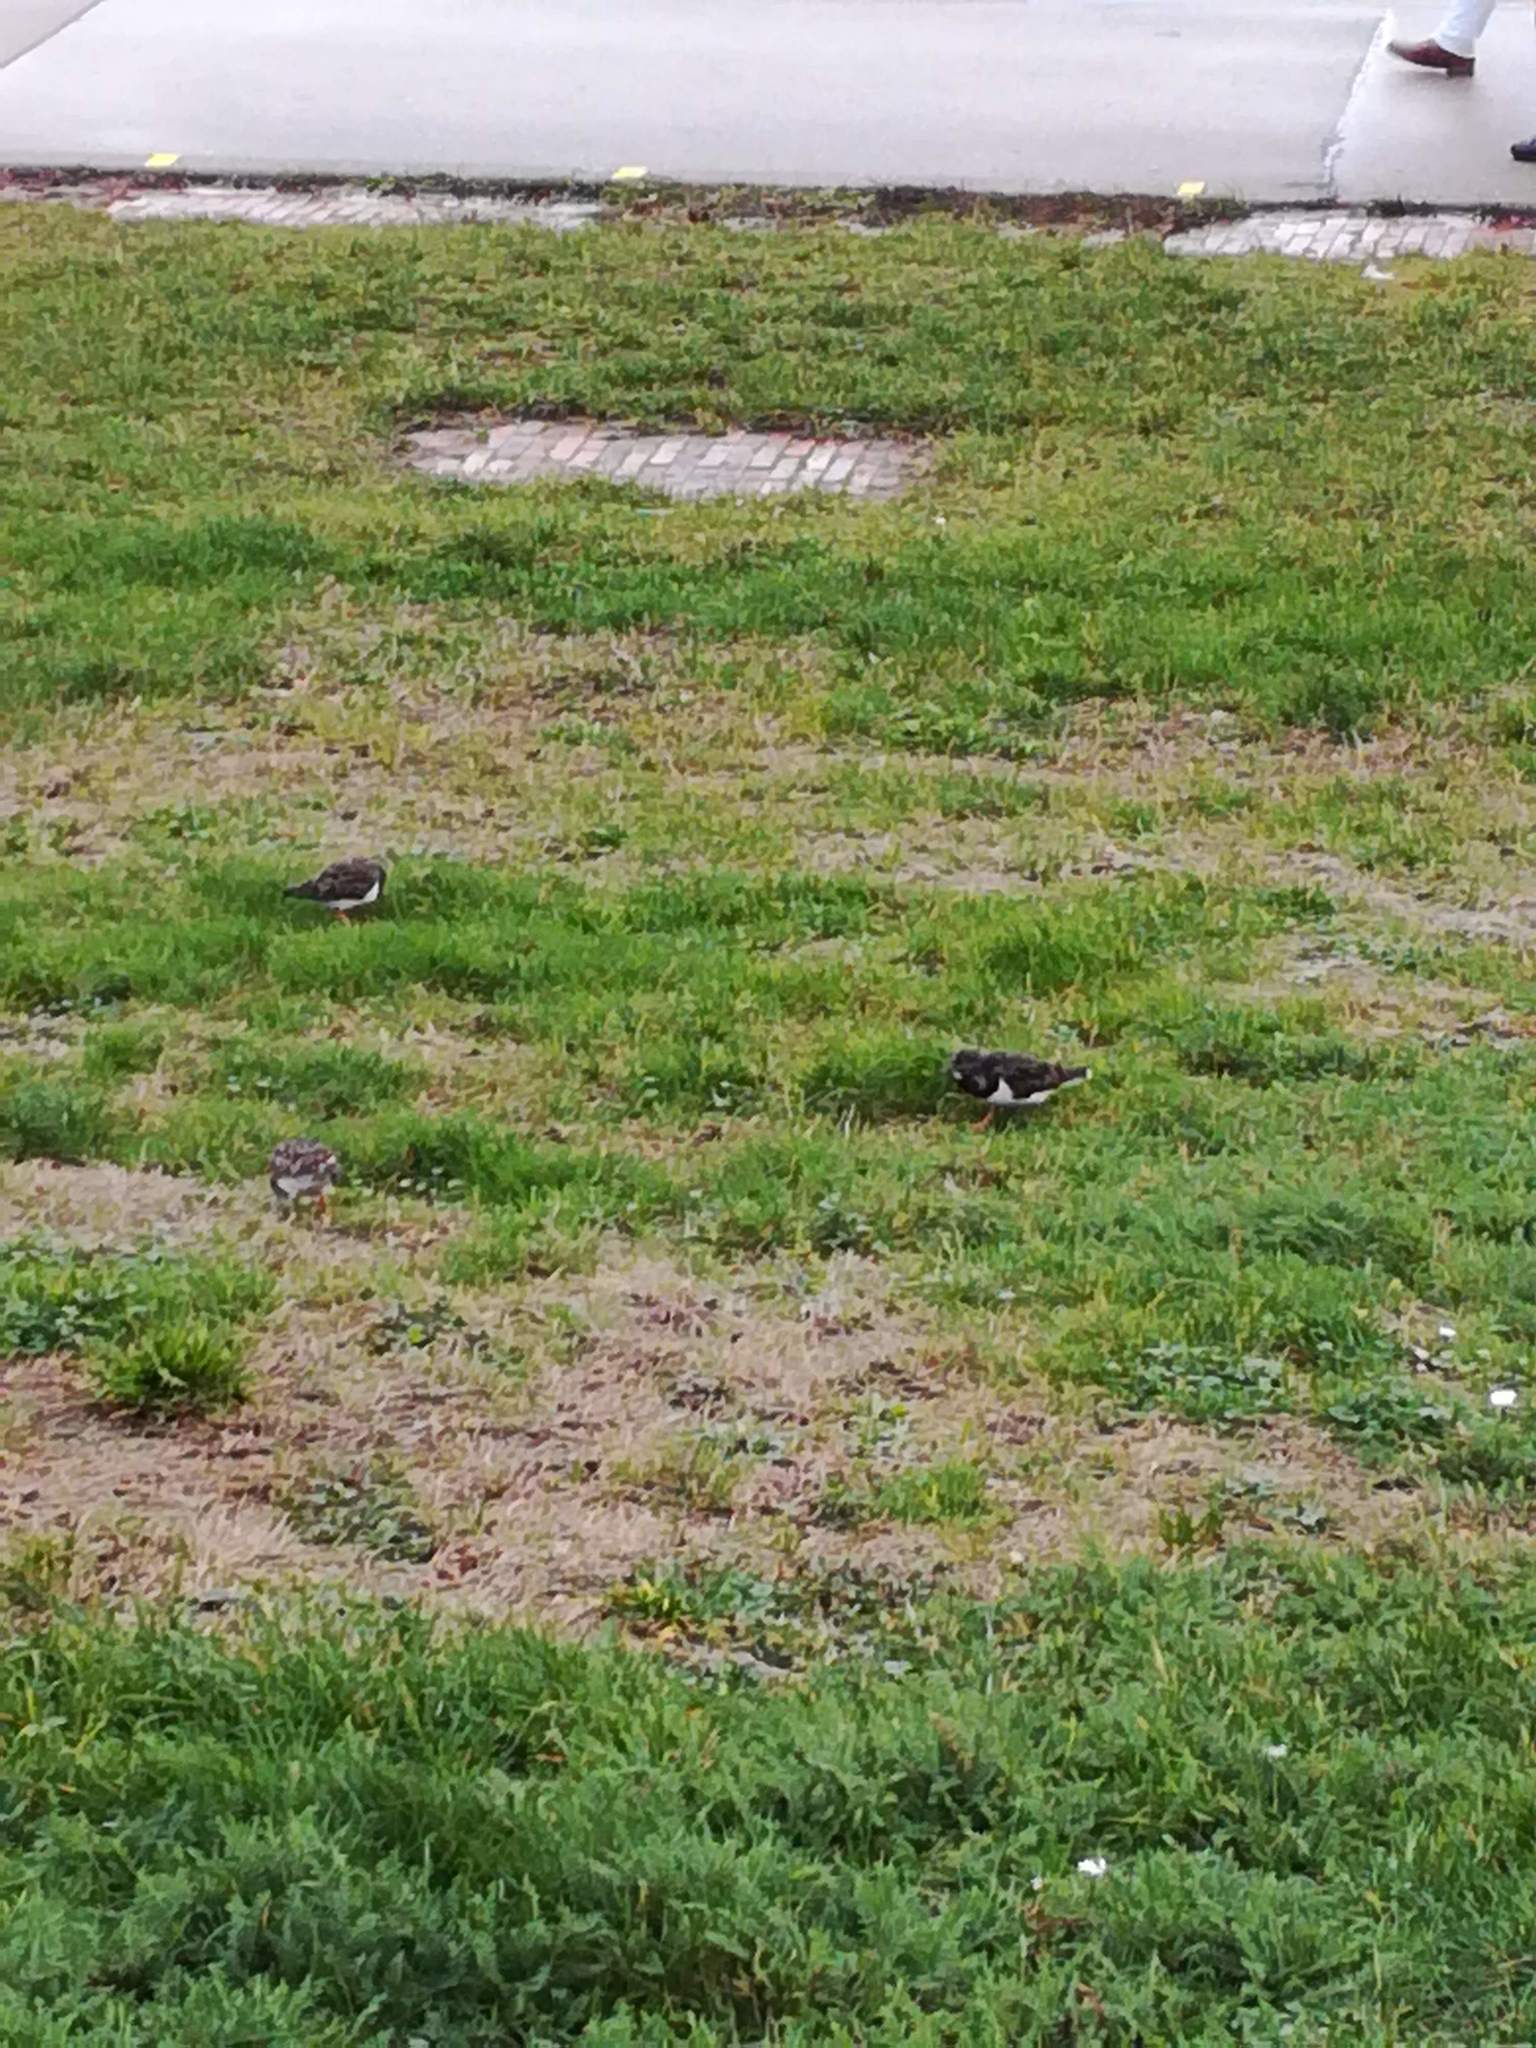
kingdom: Animalia
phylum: Chordata
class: Aves
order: Charadriiformes
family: Scolopacidae
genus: Arenaria
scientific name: Arenaria interpres
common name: Ruddy turnstone
